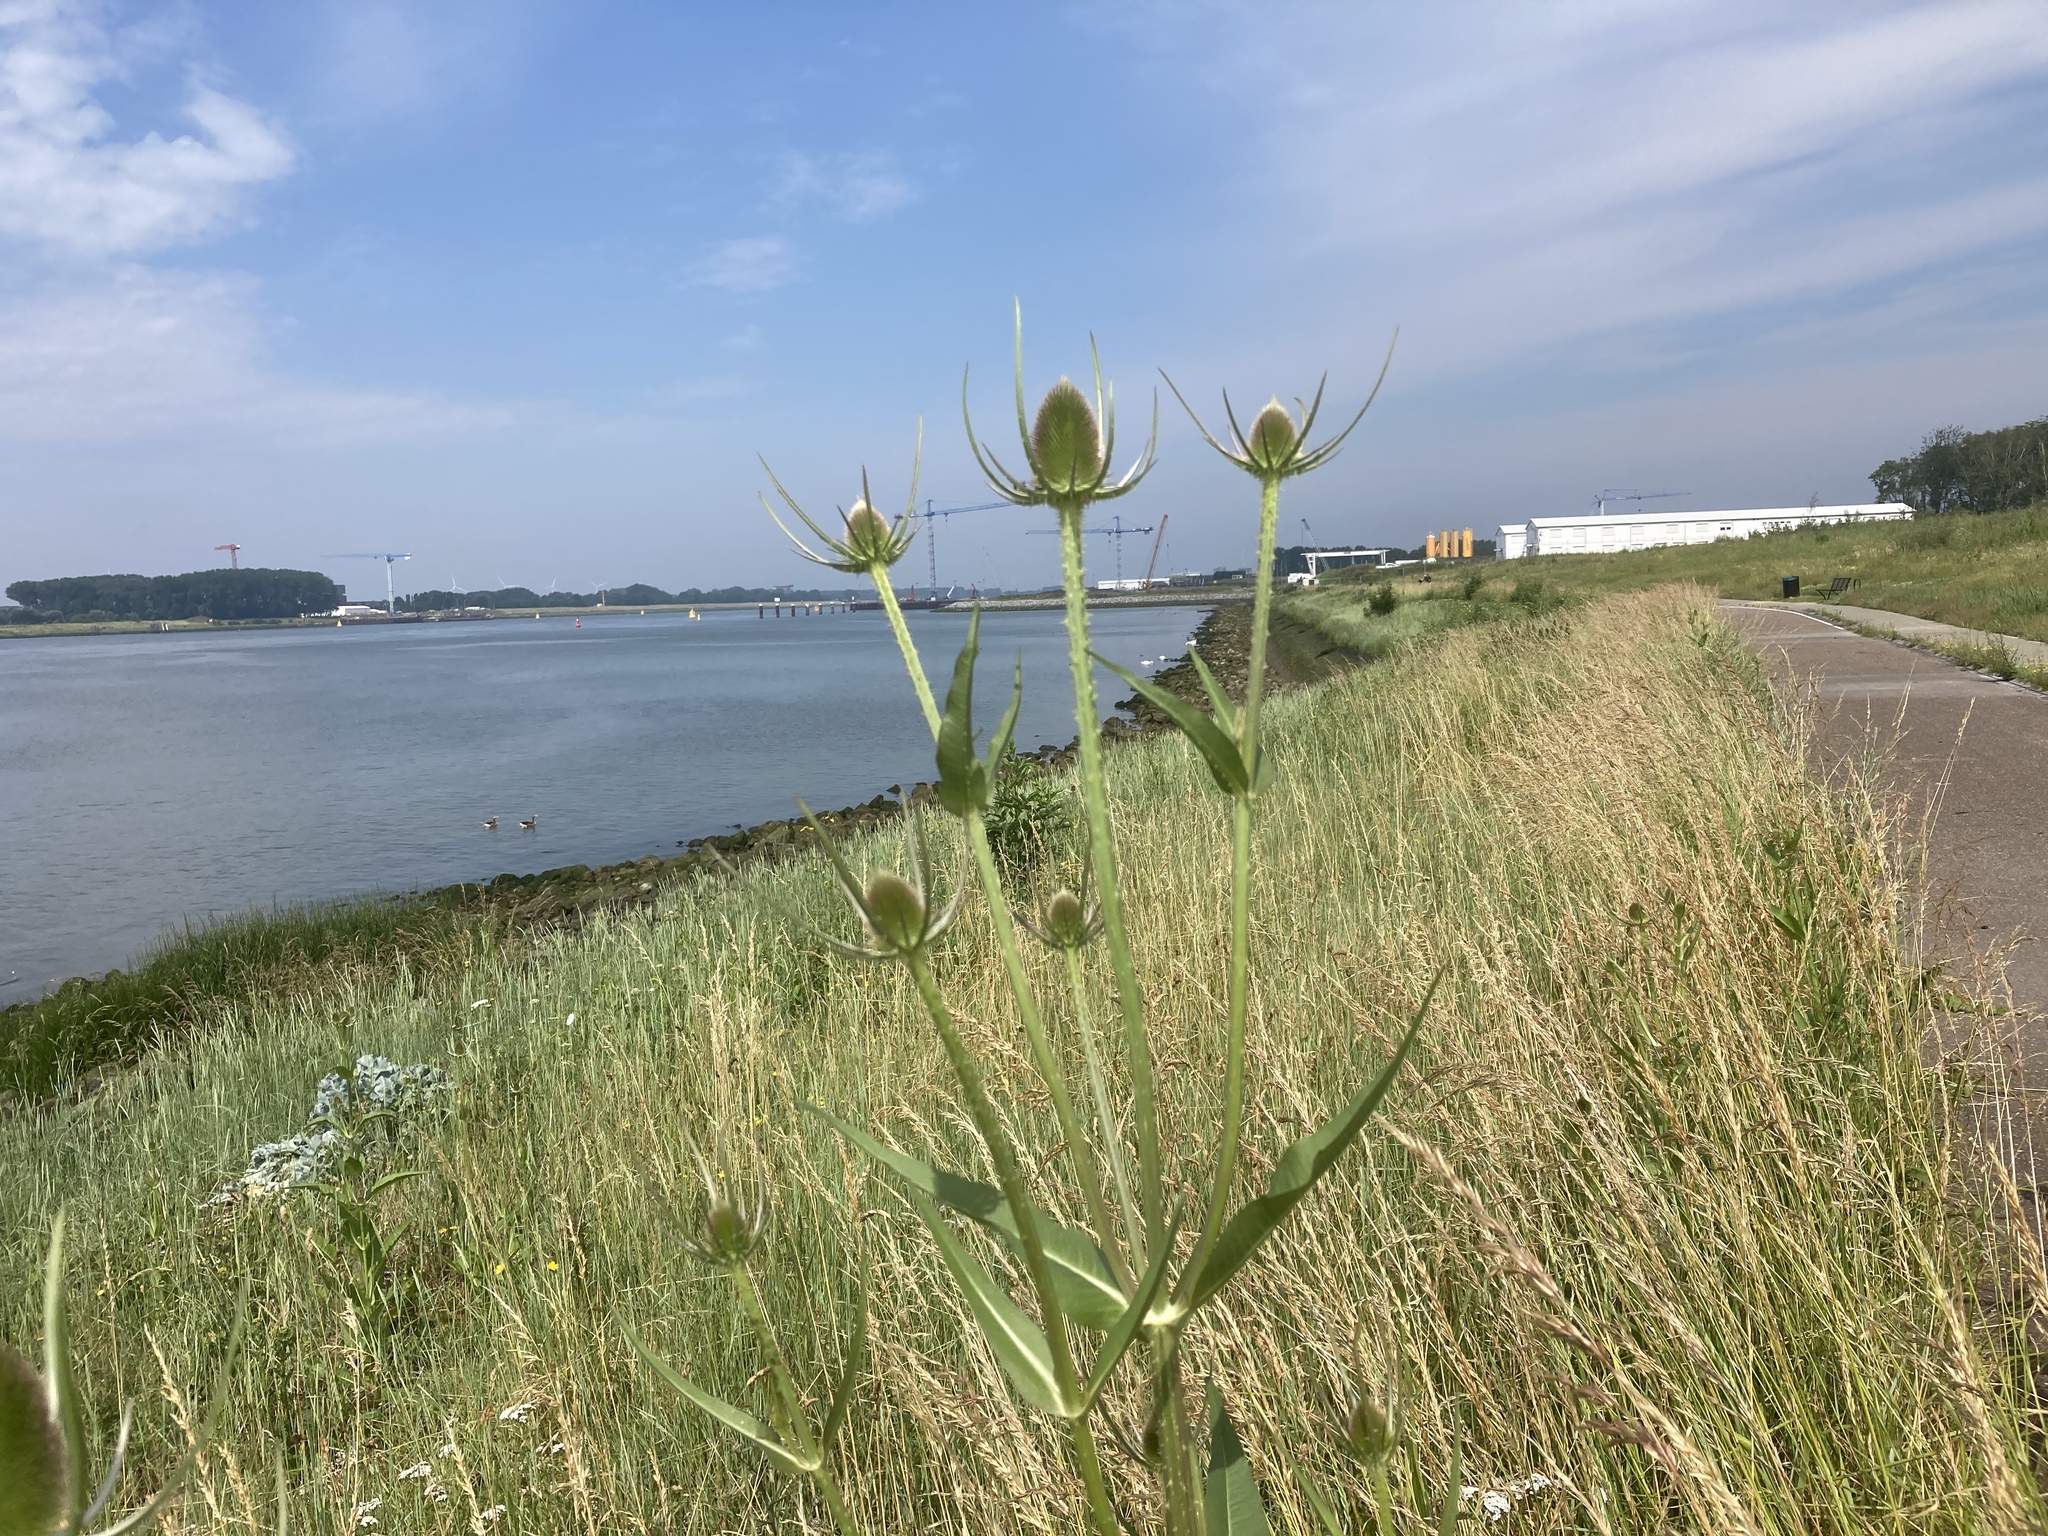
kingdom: Plantae
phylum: Tracheophyta
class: Magnoliopsida
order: Dipsacales
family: Caprifoliaceae
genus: Dipsacus
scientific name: Dipsacus fullonum
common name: Teasel
